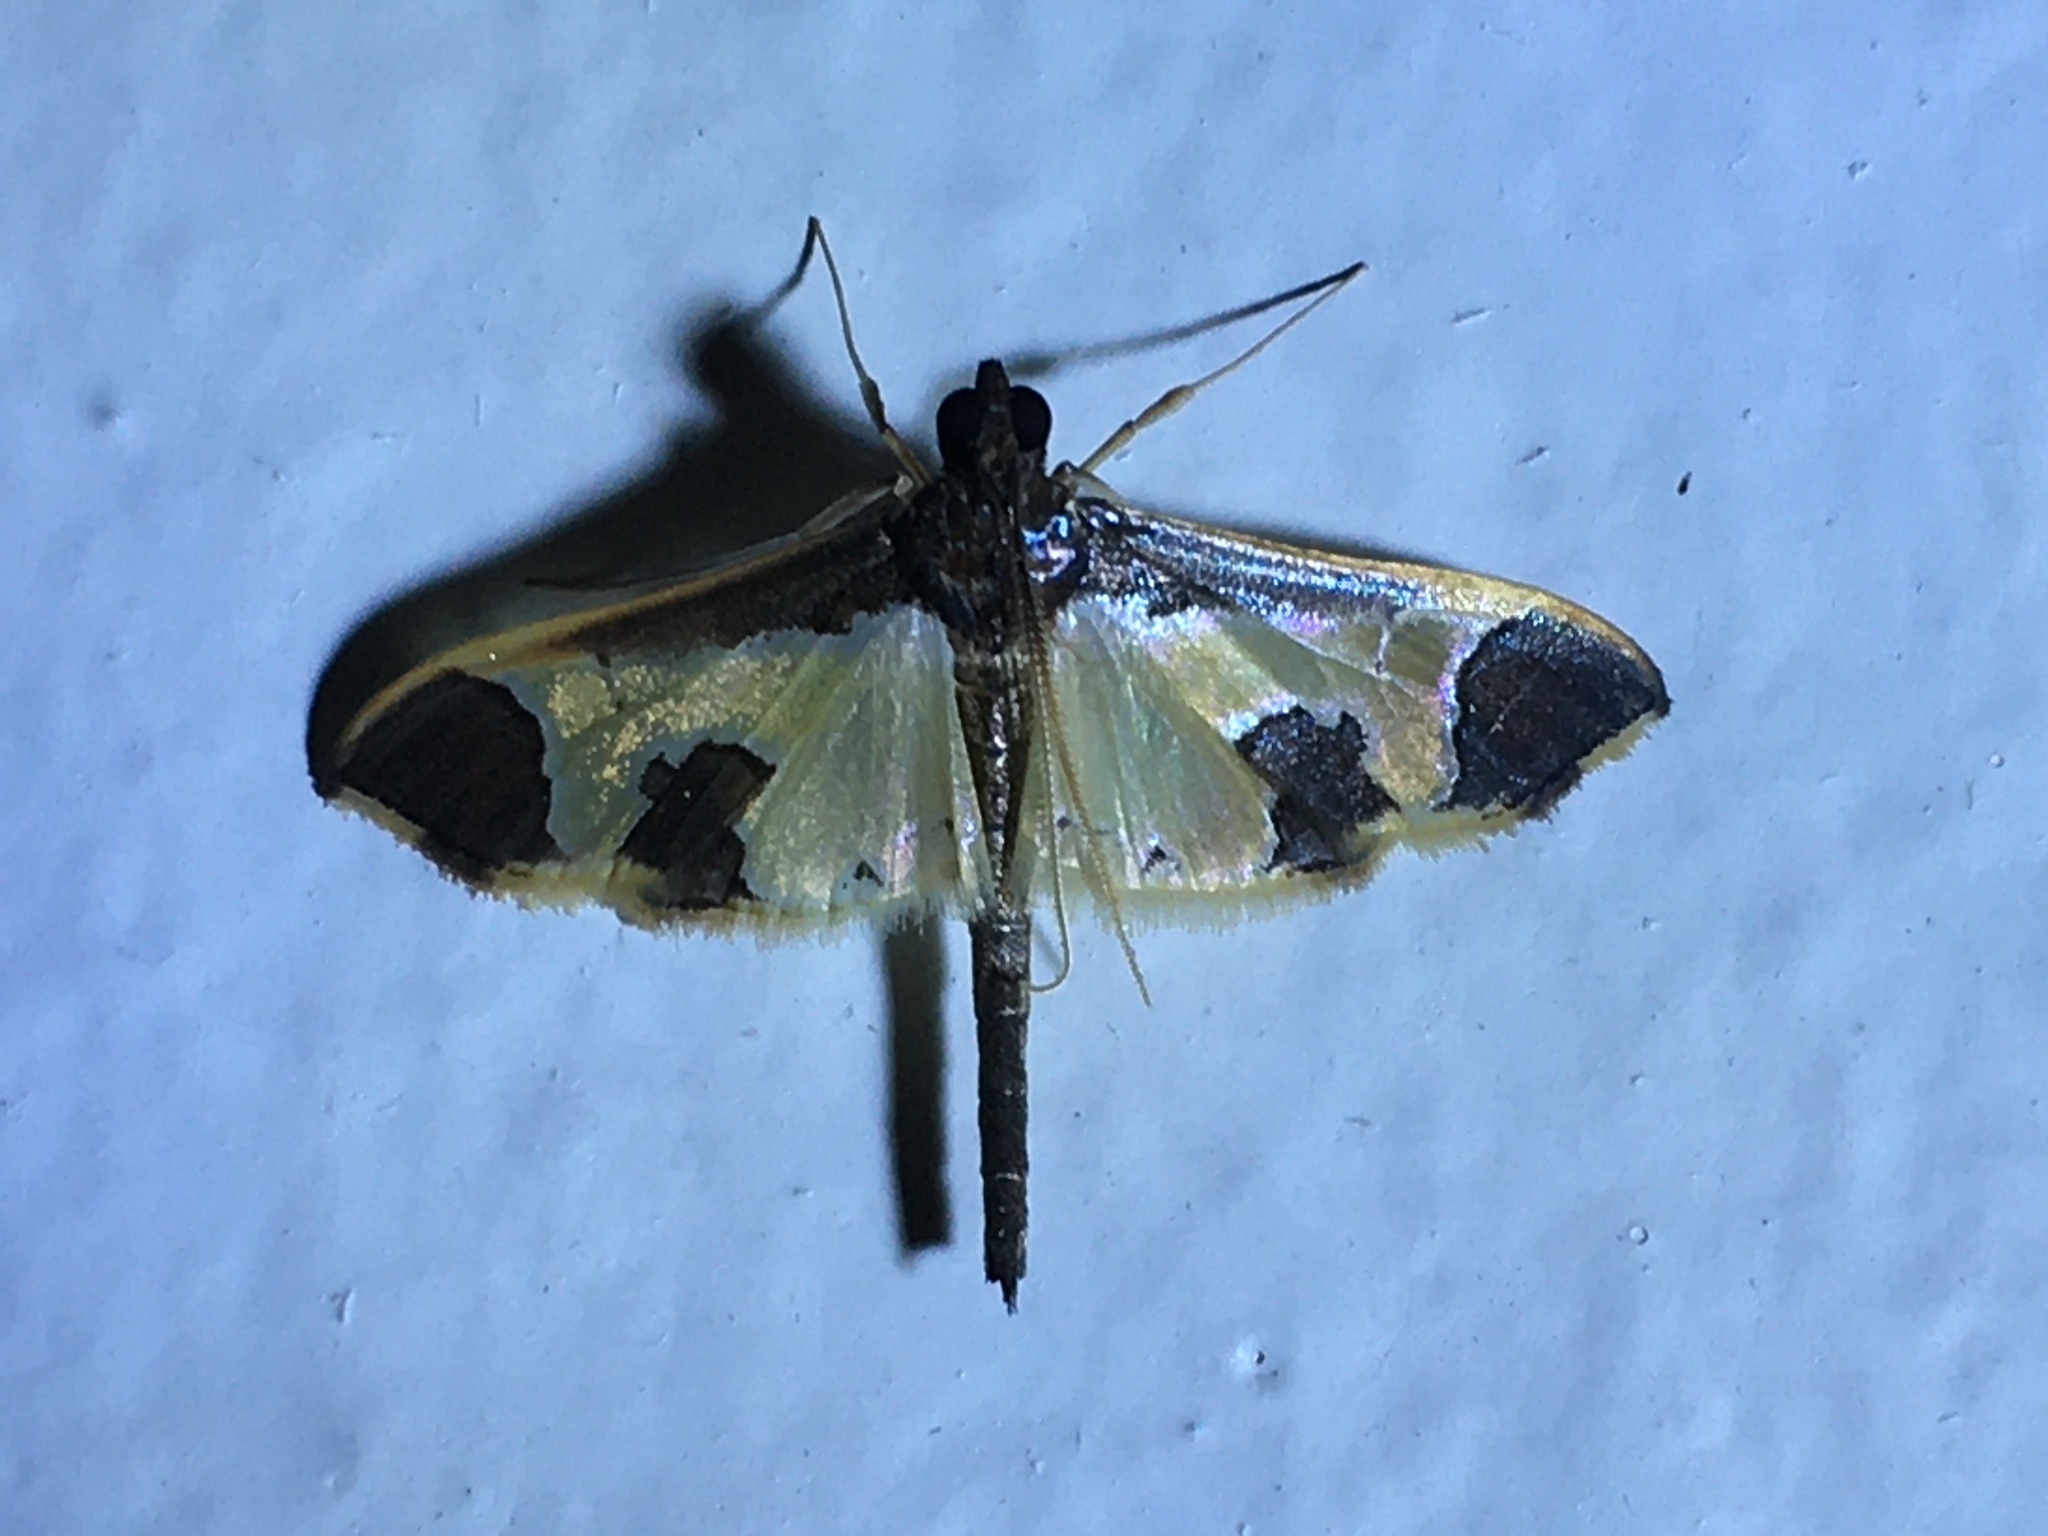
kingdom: Animalia
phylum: Arthropoda
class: Insecta
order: Lepidoptera
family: Crambidae
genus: Syllepis
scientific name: Syllepis marialis
